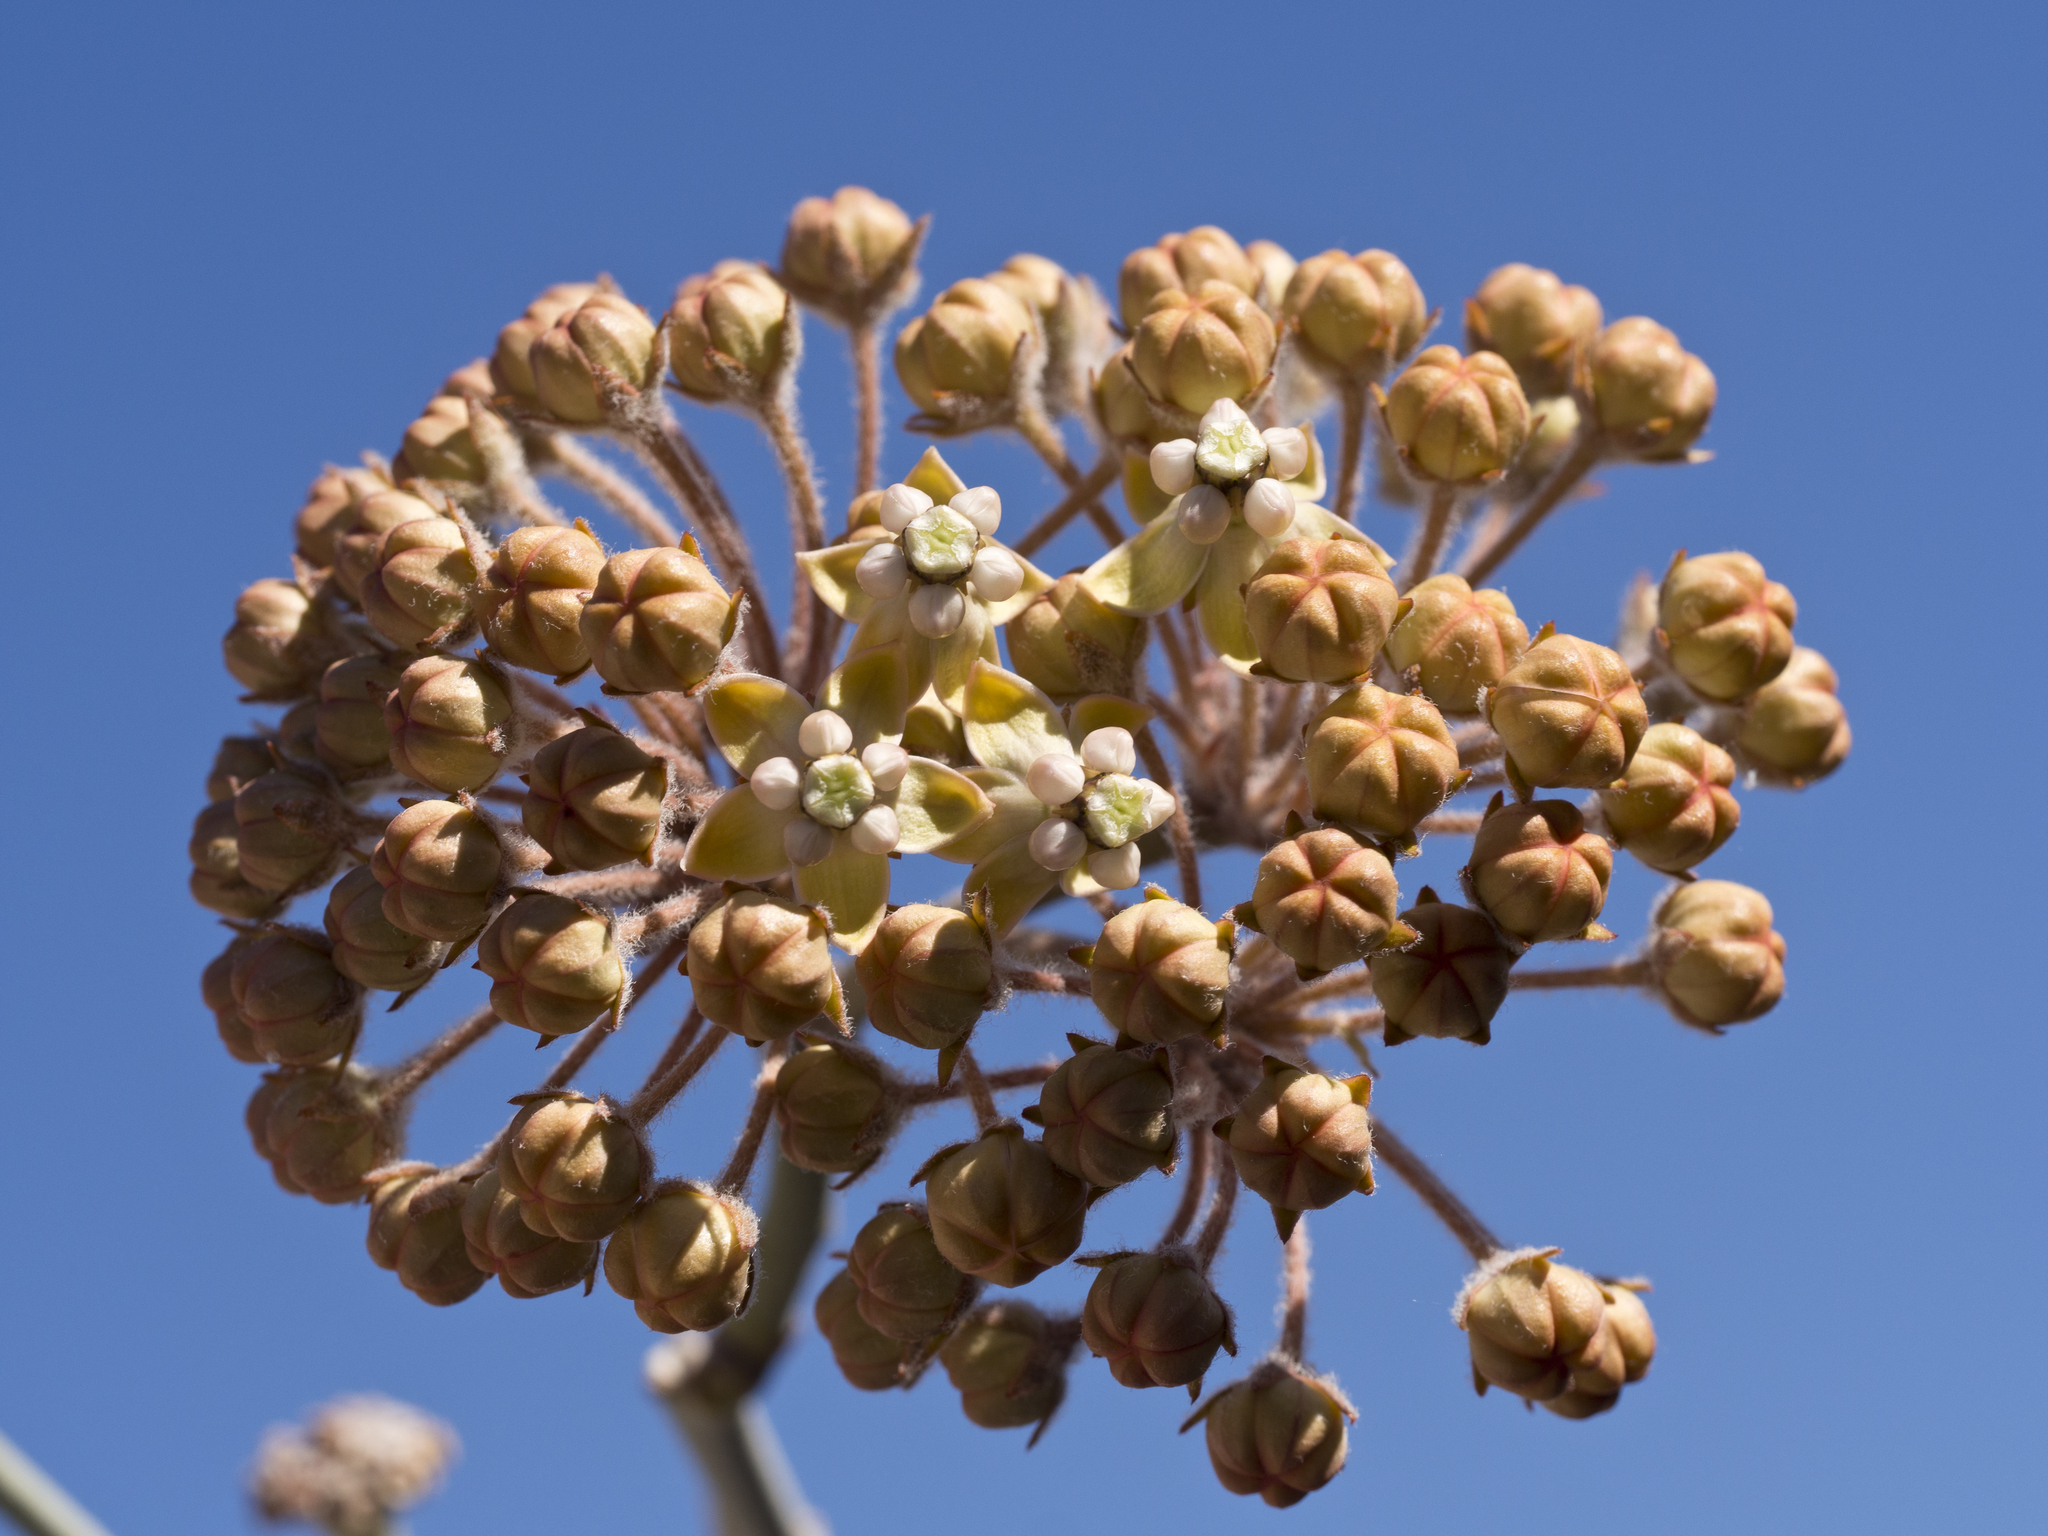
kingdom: Plantae
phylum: Tracheophyta
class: Magnoliopsida
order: Gentianales
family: Apocynaceae
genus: Asclepias
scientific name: Asclepias albicans
